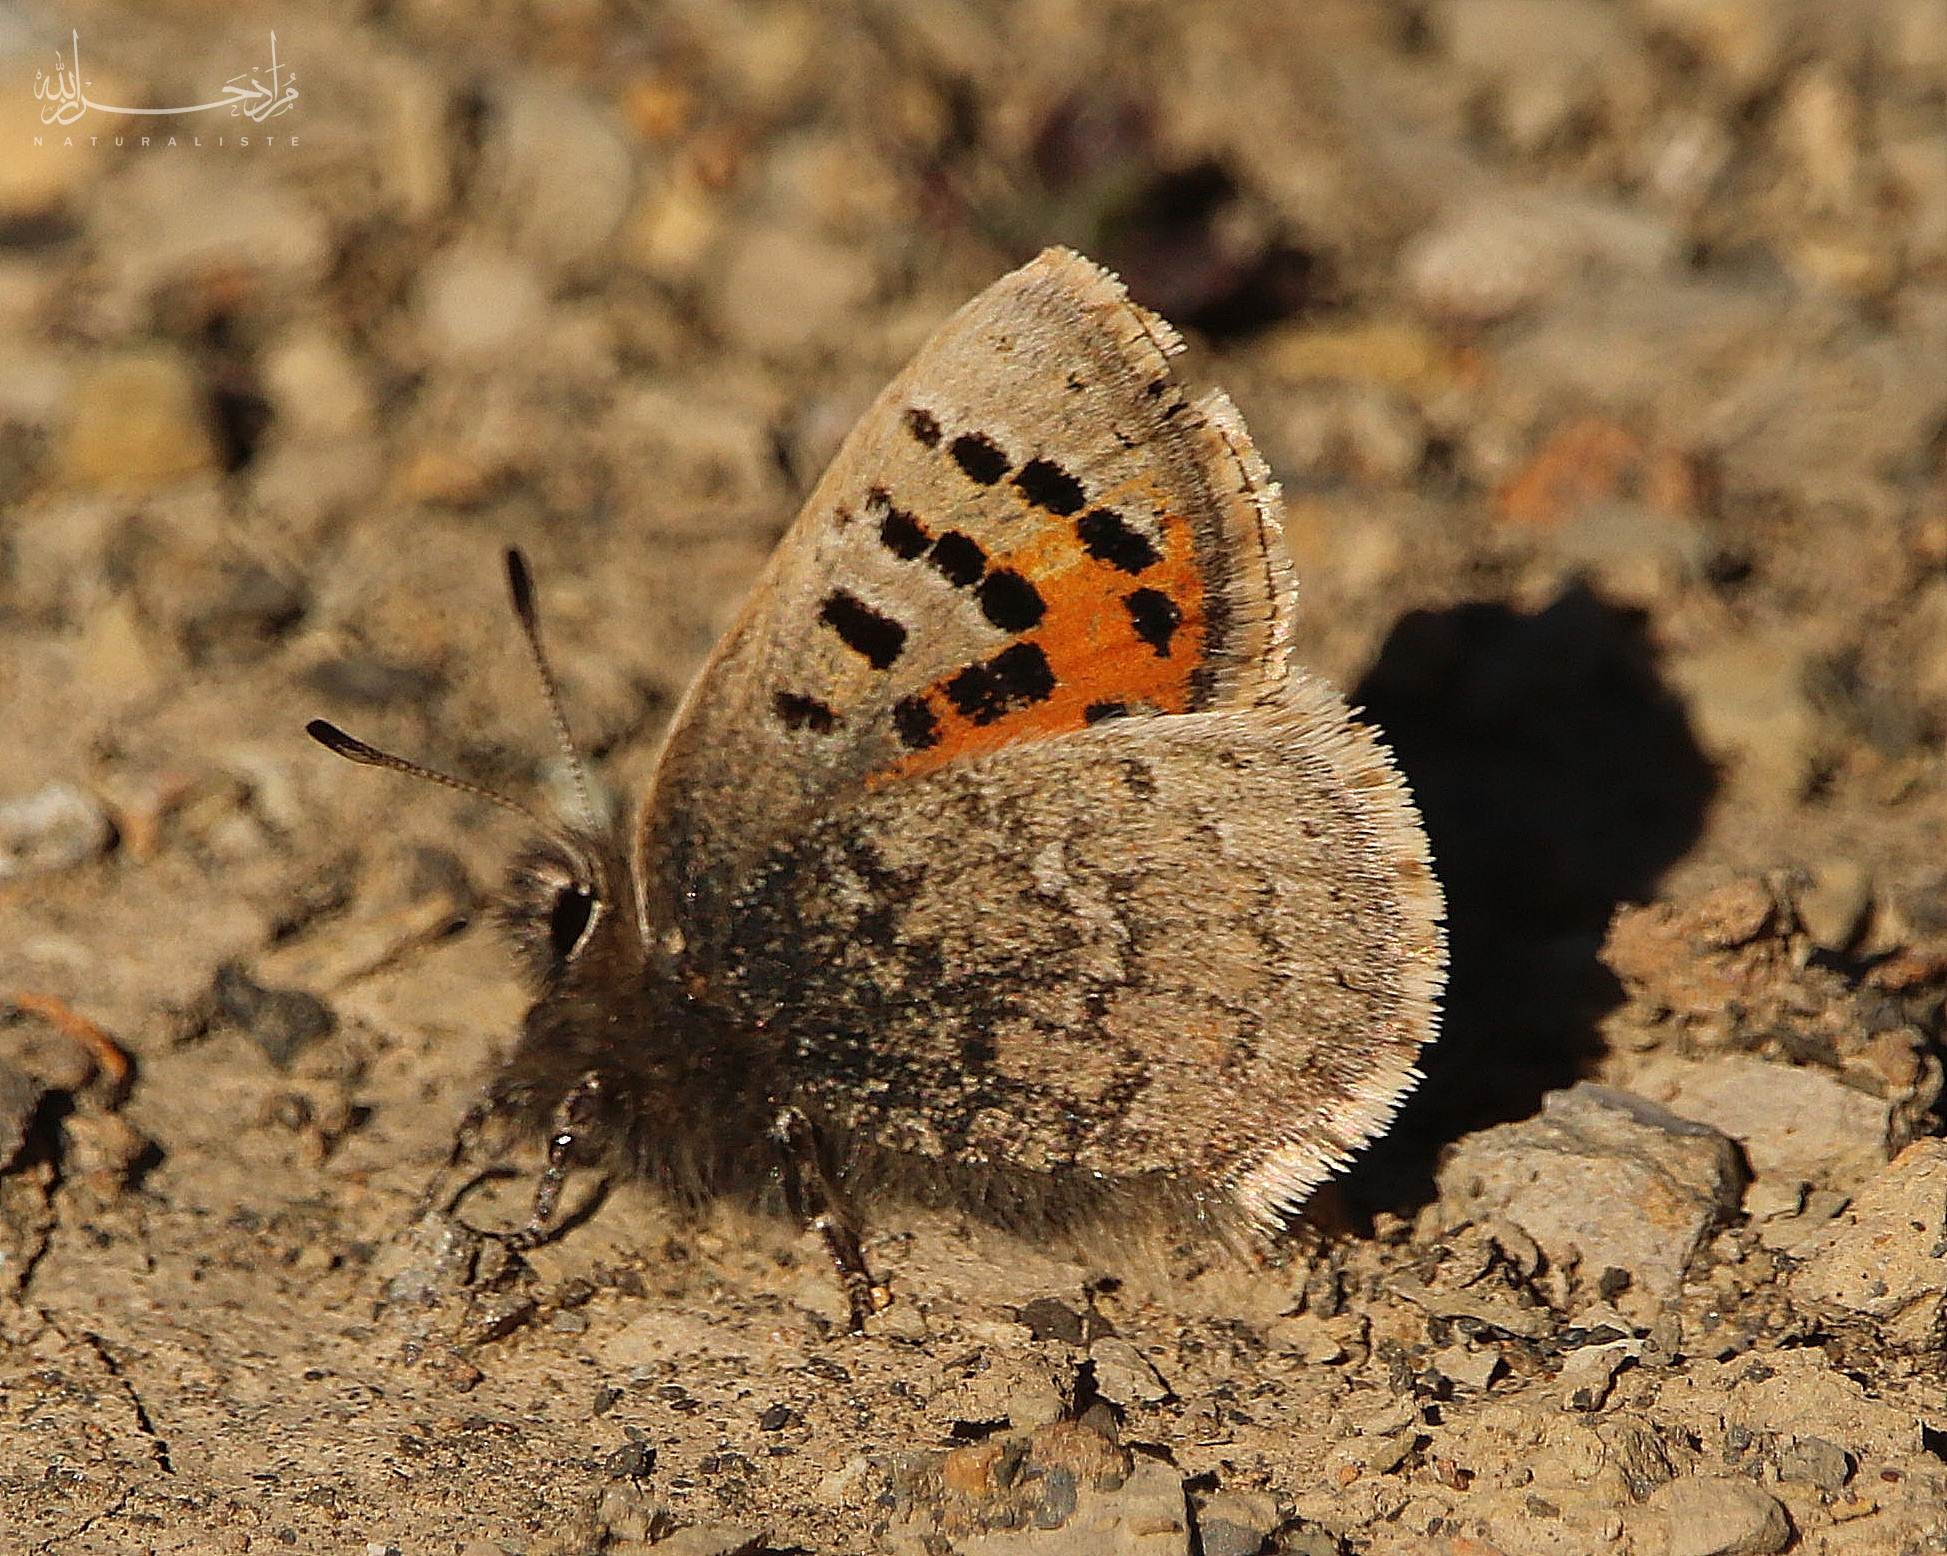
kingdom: Animalia
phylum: Arthropoda
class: Insecta
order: Lepidoptera
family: Lycaenidae
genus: Tomares
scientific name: Tomares mauritanicus
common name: Moroccan hairstreak
